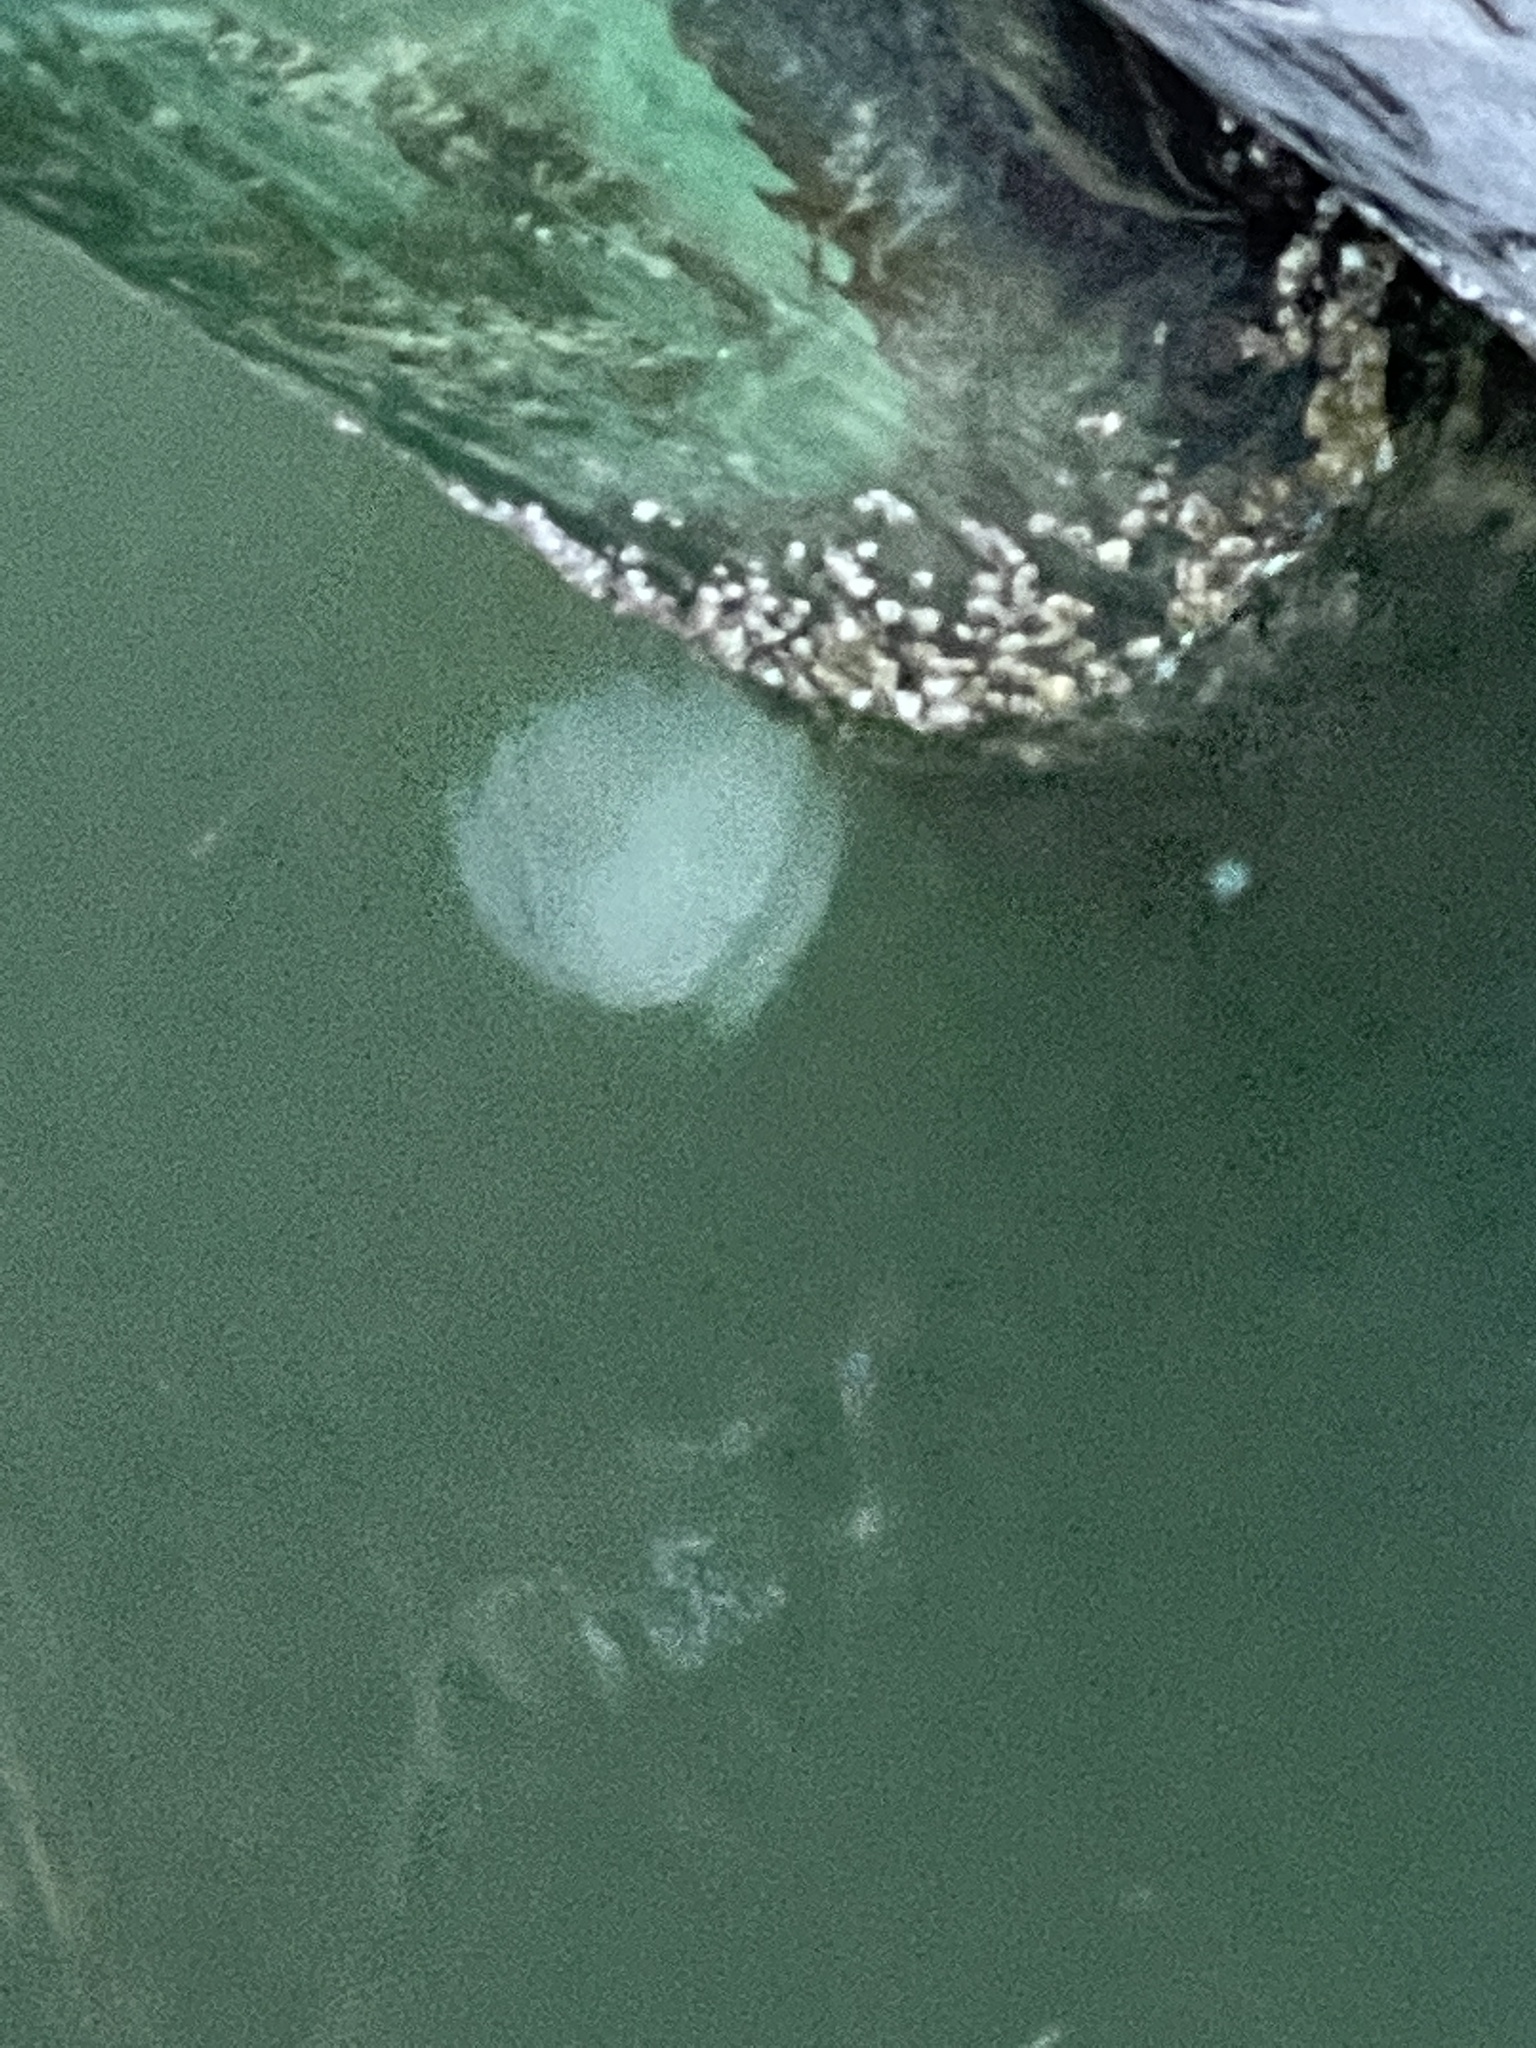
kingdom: Animalia
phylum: Cnidaria
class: Scyphozoa
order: Rhizostomeae
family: Stomolophidae
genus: Stomolophus
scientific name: Stomolophus meleagris
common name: Cabbagehead
